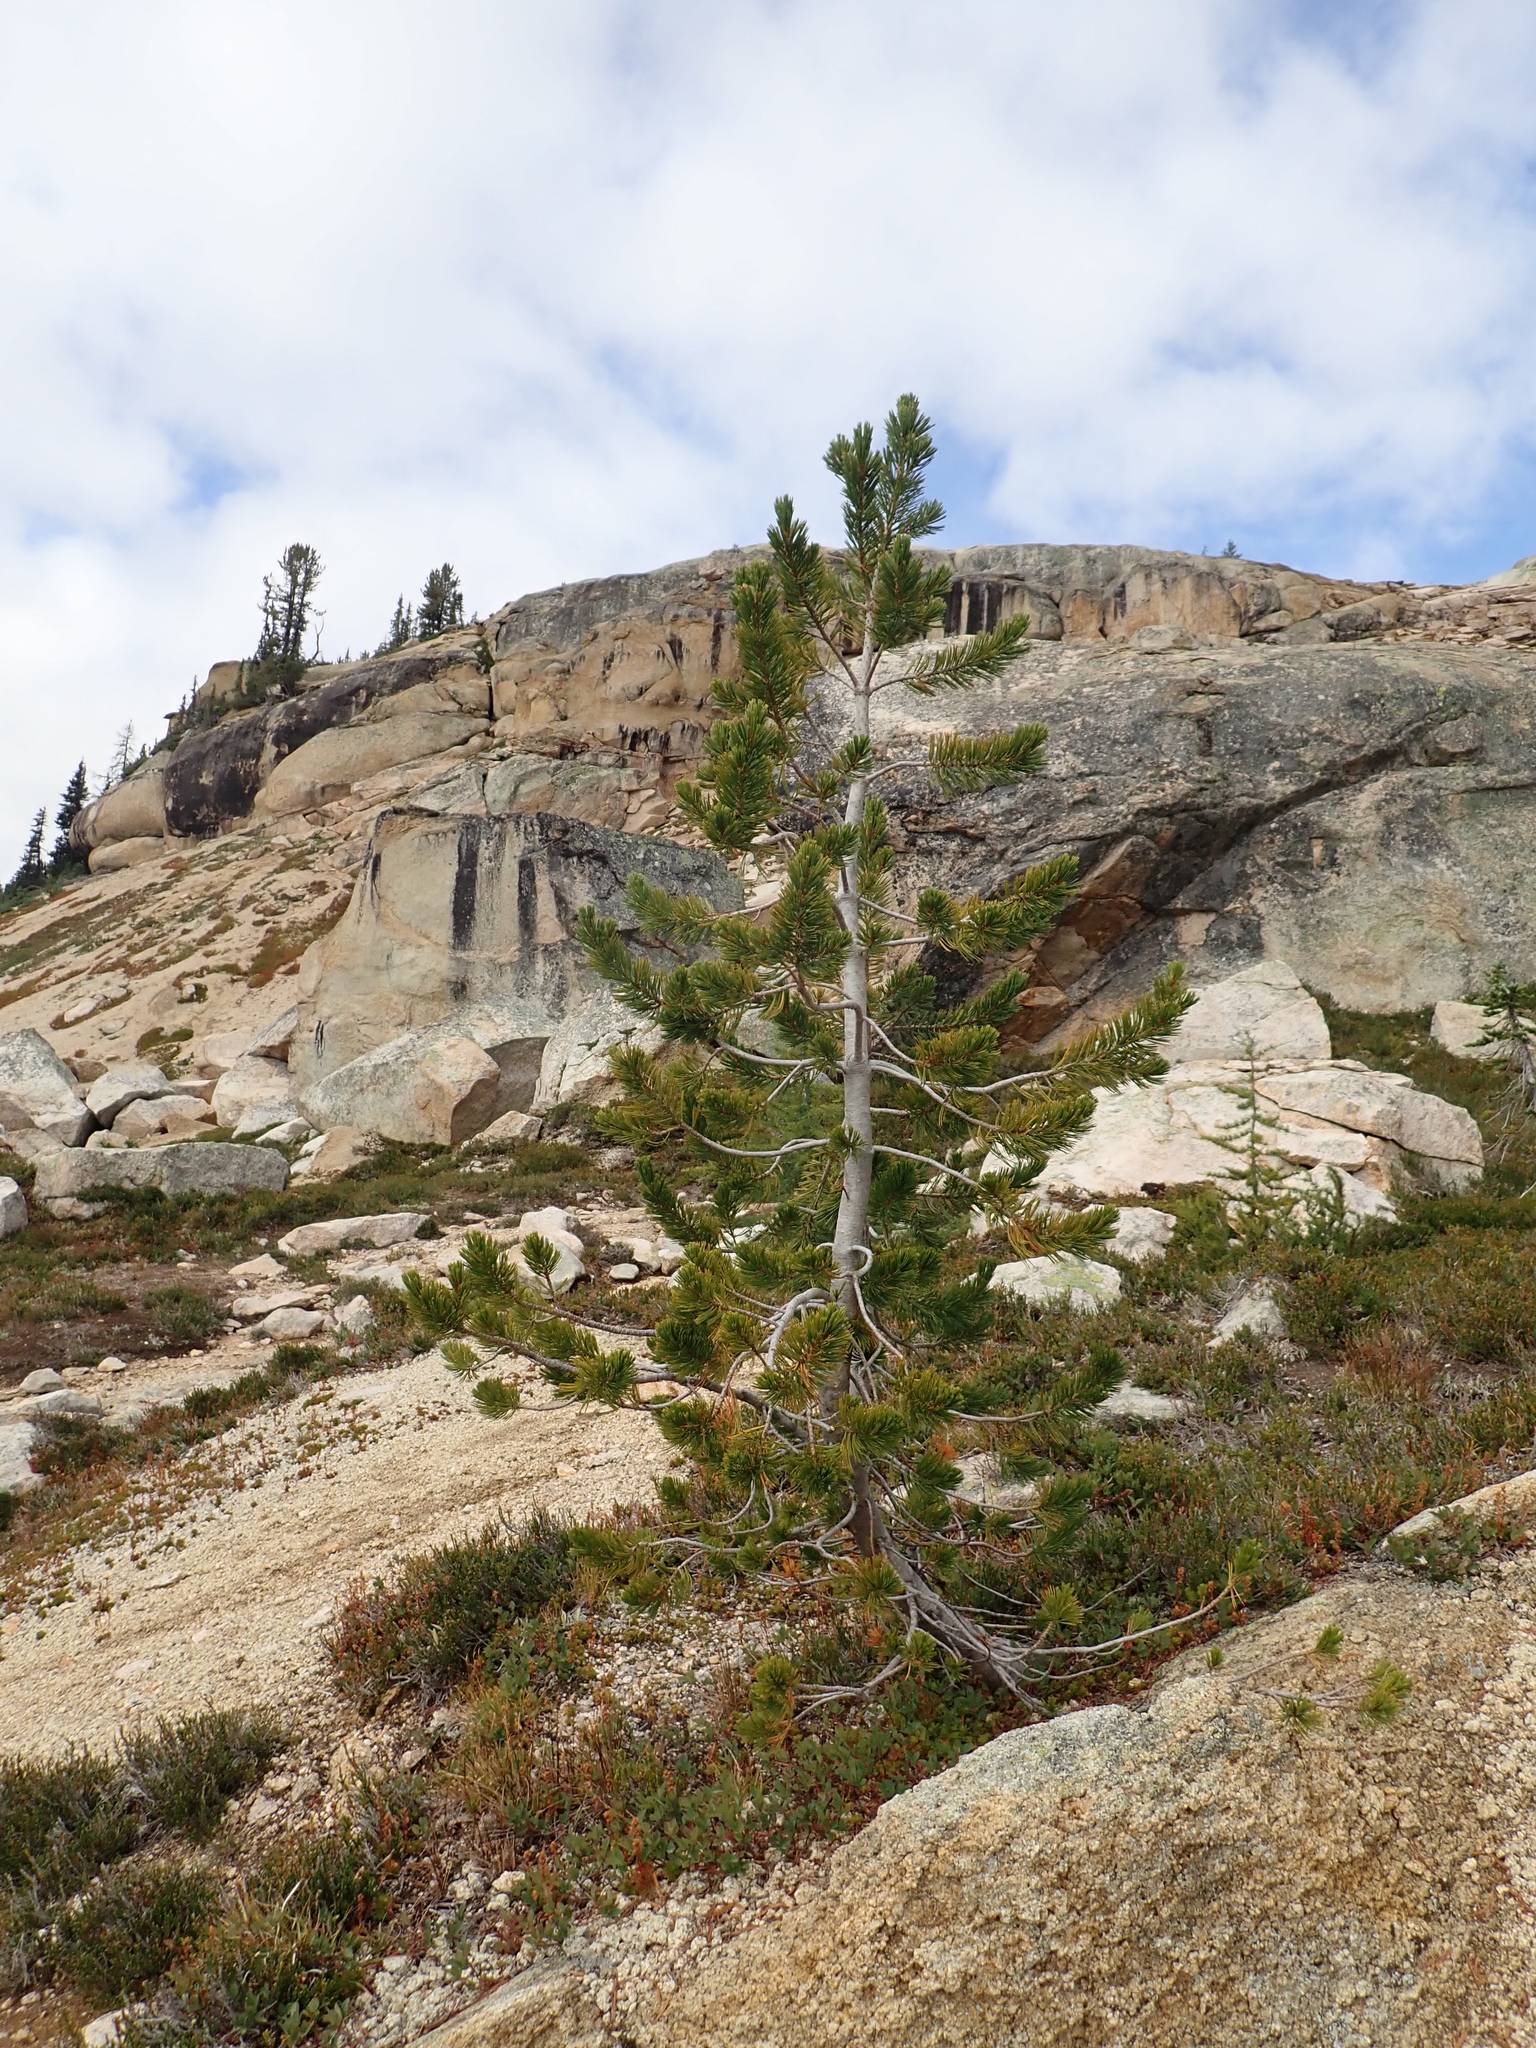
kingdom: Plantae
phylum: Tracheophyta
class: Pinopsida
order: Pinales
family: Pinaceae
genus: Pinus
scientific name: Pinus albicaulis
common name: Whitebark pine
